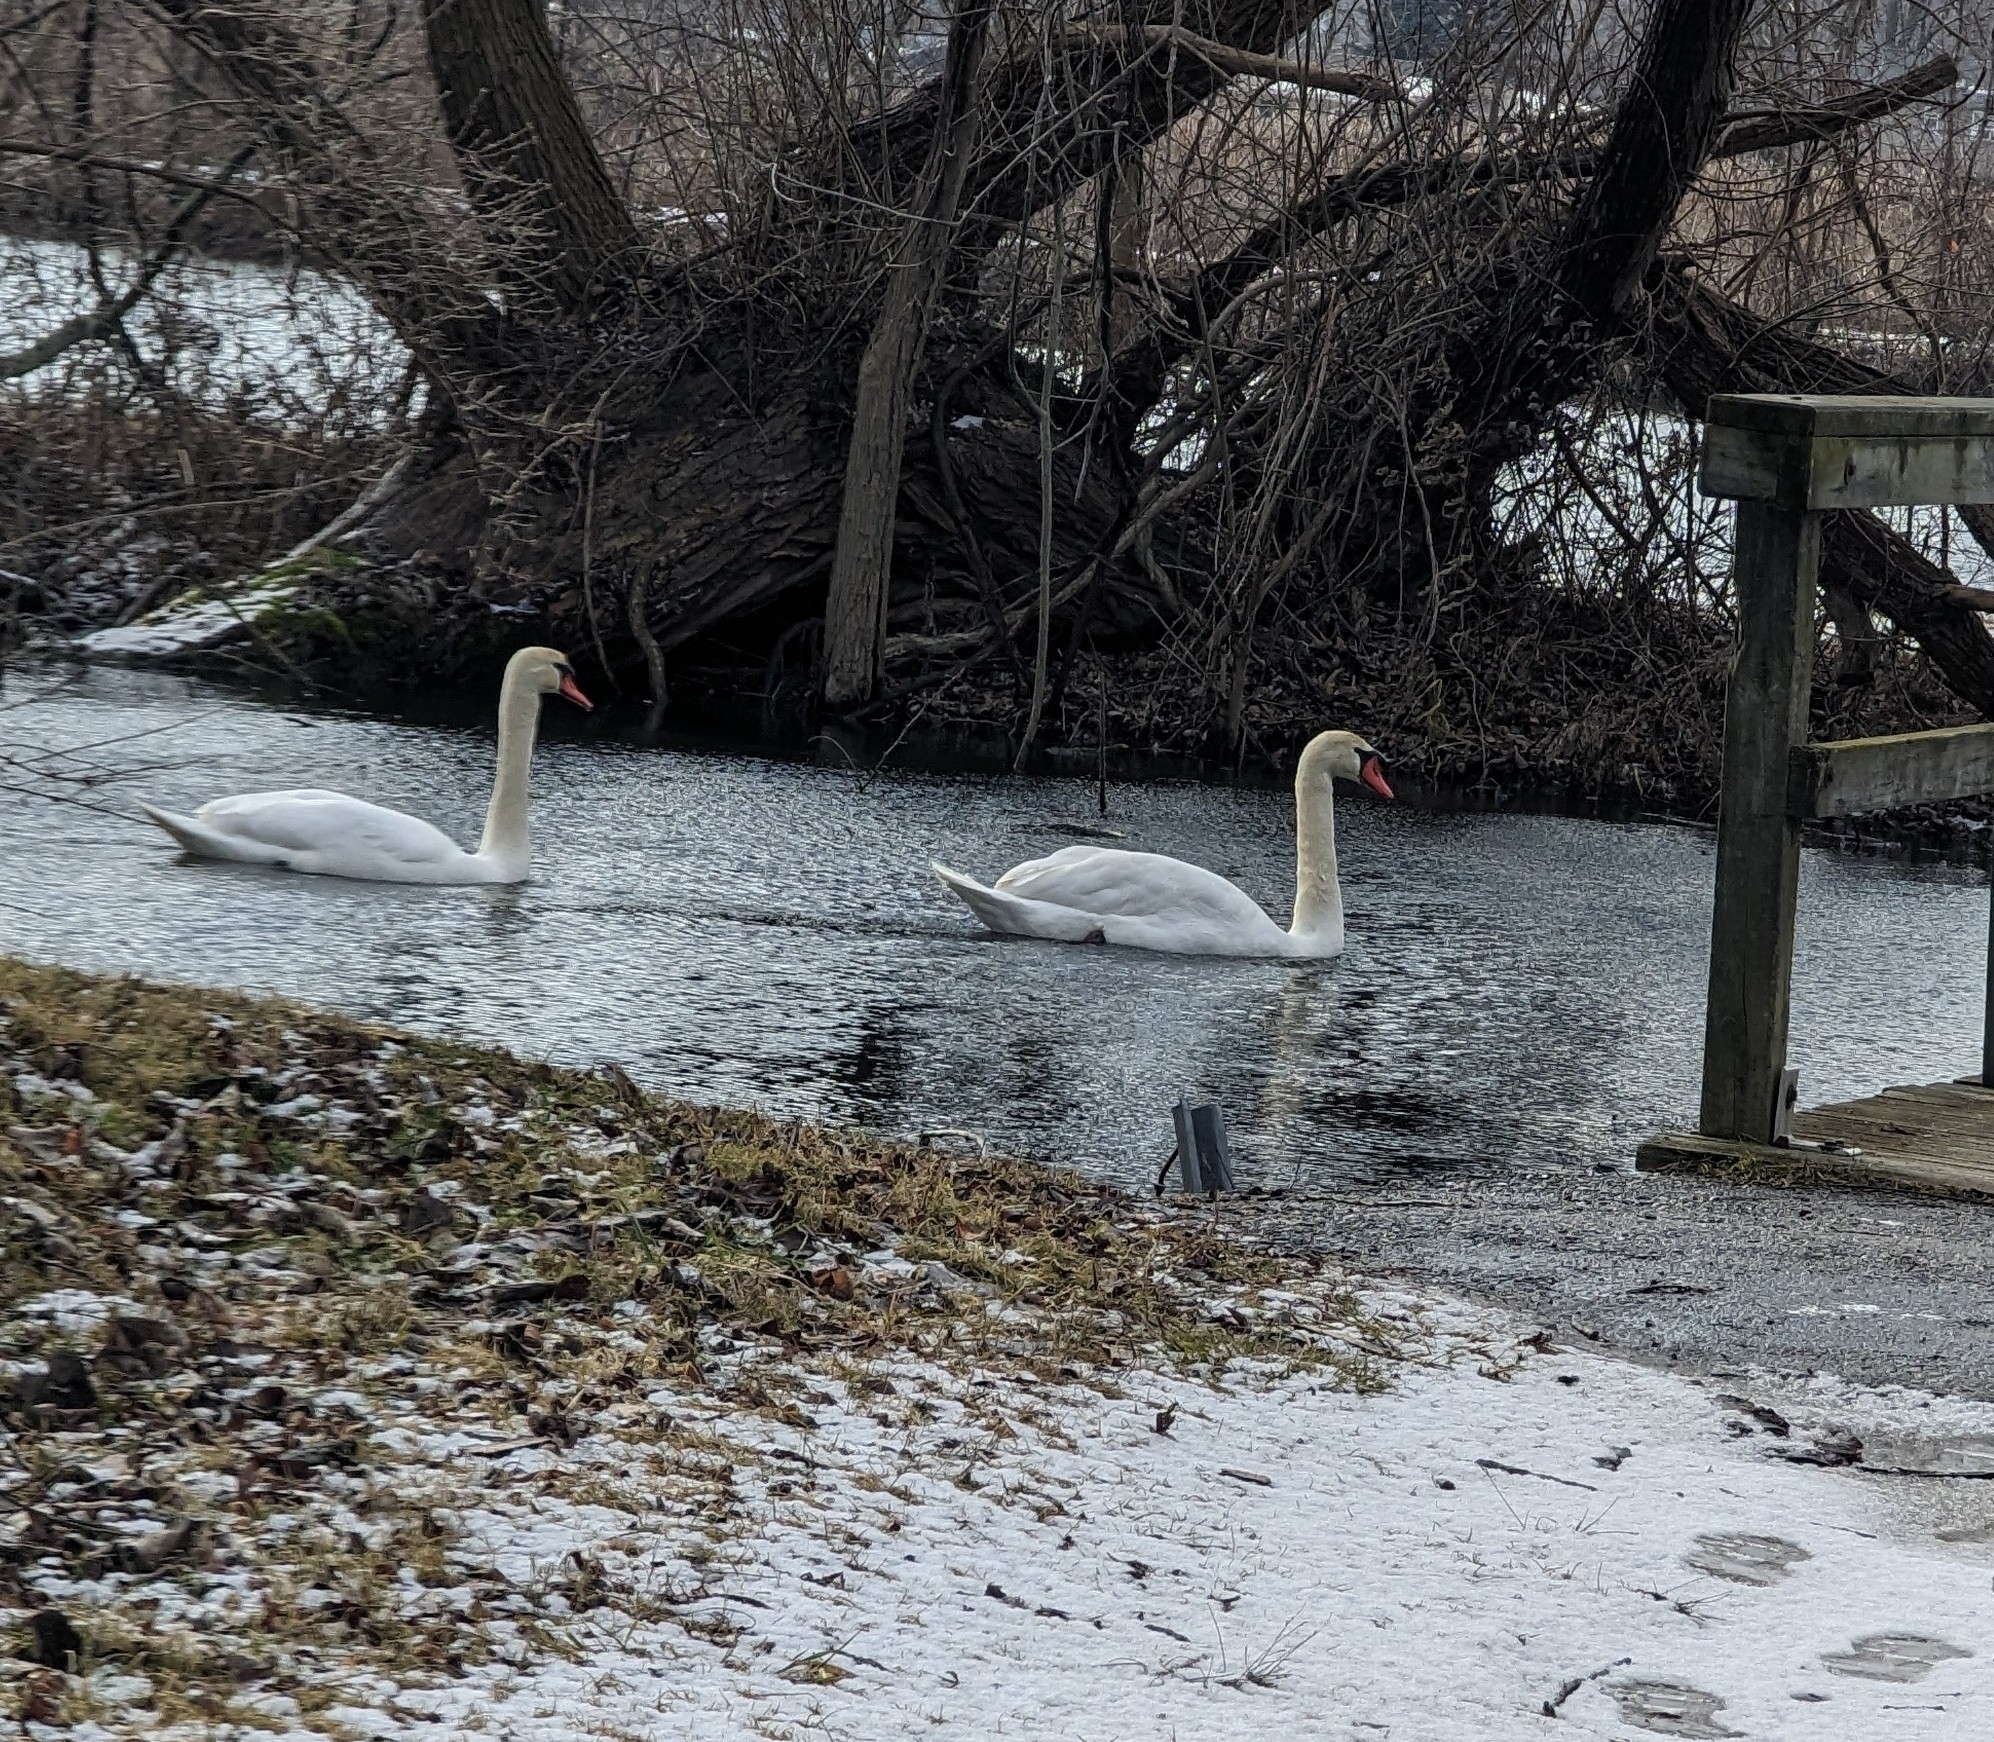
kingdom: Animalia
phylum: Chordata
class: Aves
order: Anseriformes
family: Anatidae
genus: Cygnus
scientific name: Cygnus olor
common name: Mute swan
